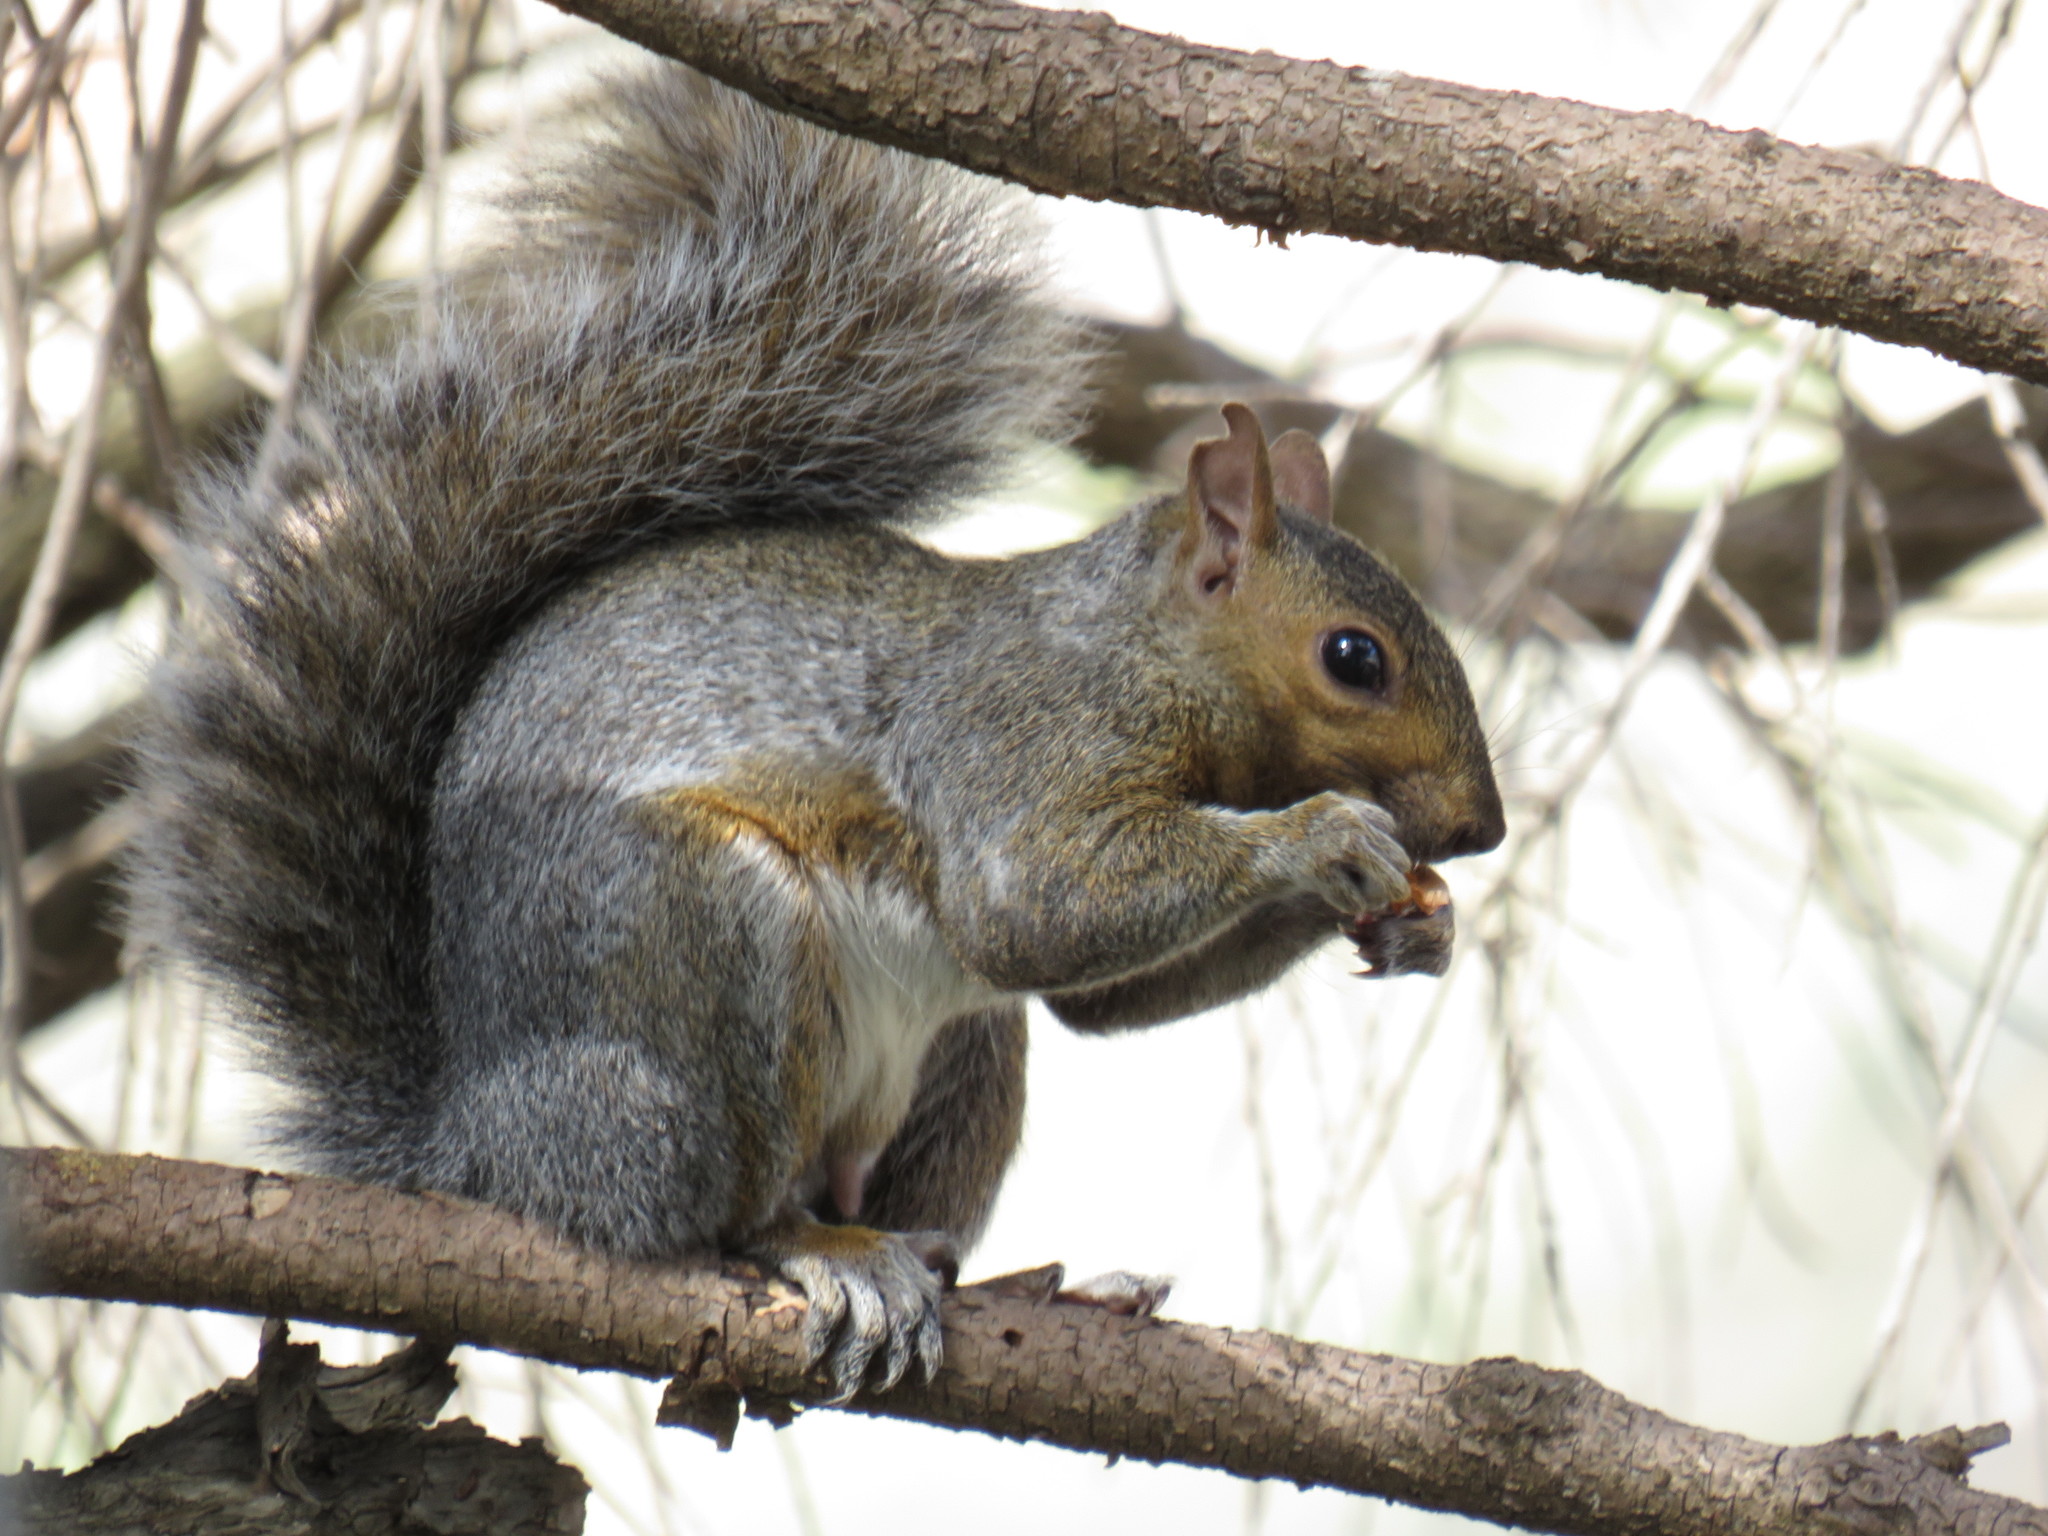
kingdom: Animalia
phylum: Chordata
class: Mammalia
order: Rodentia
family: Sciuridae
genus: Sciurus
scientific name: Sciurus carolinensis
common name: Eastern gray squirrel
